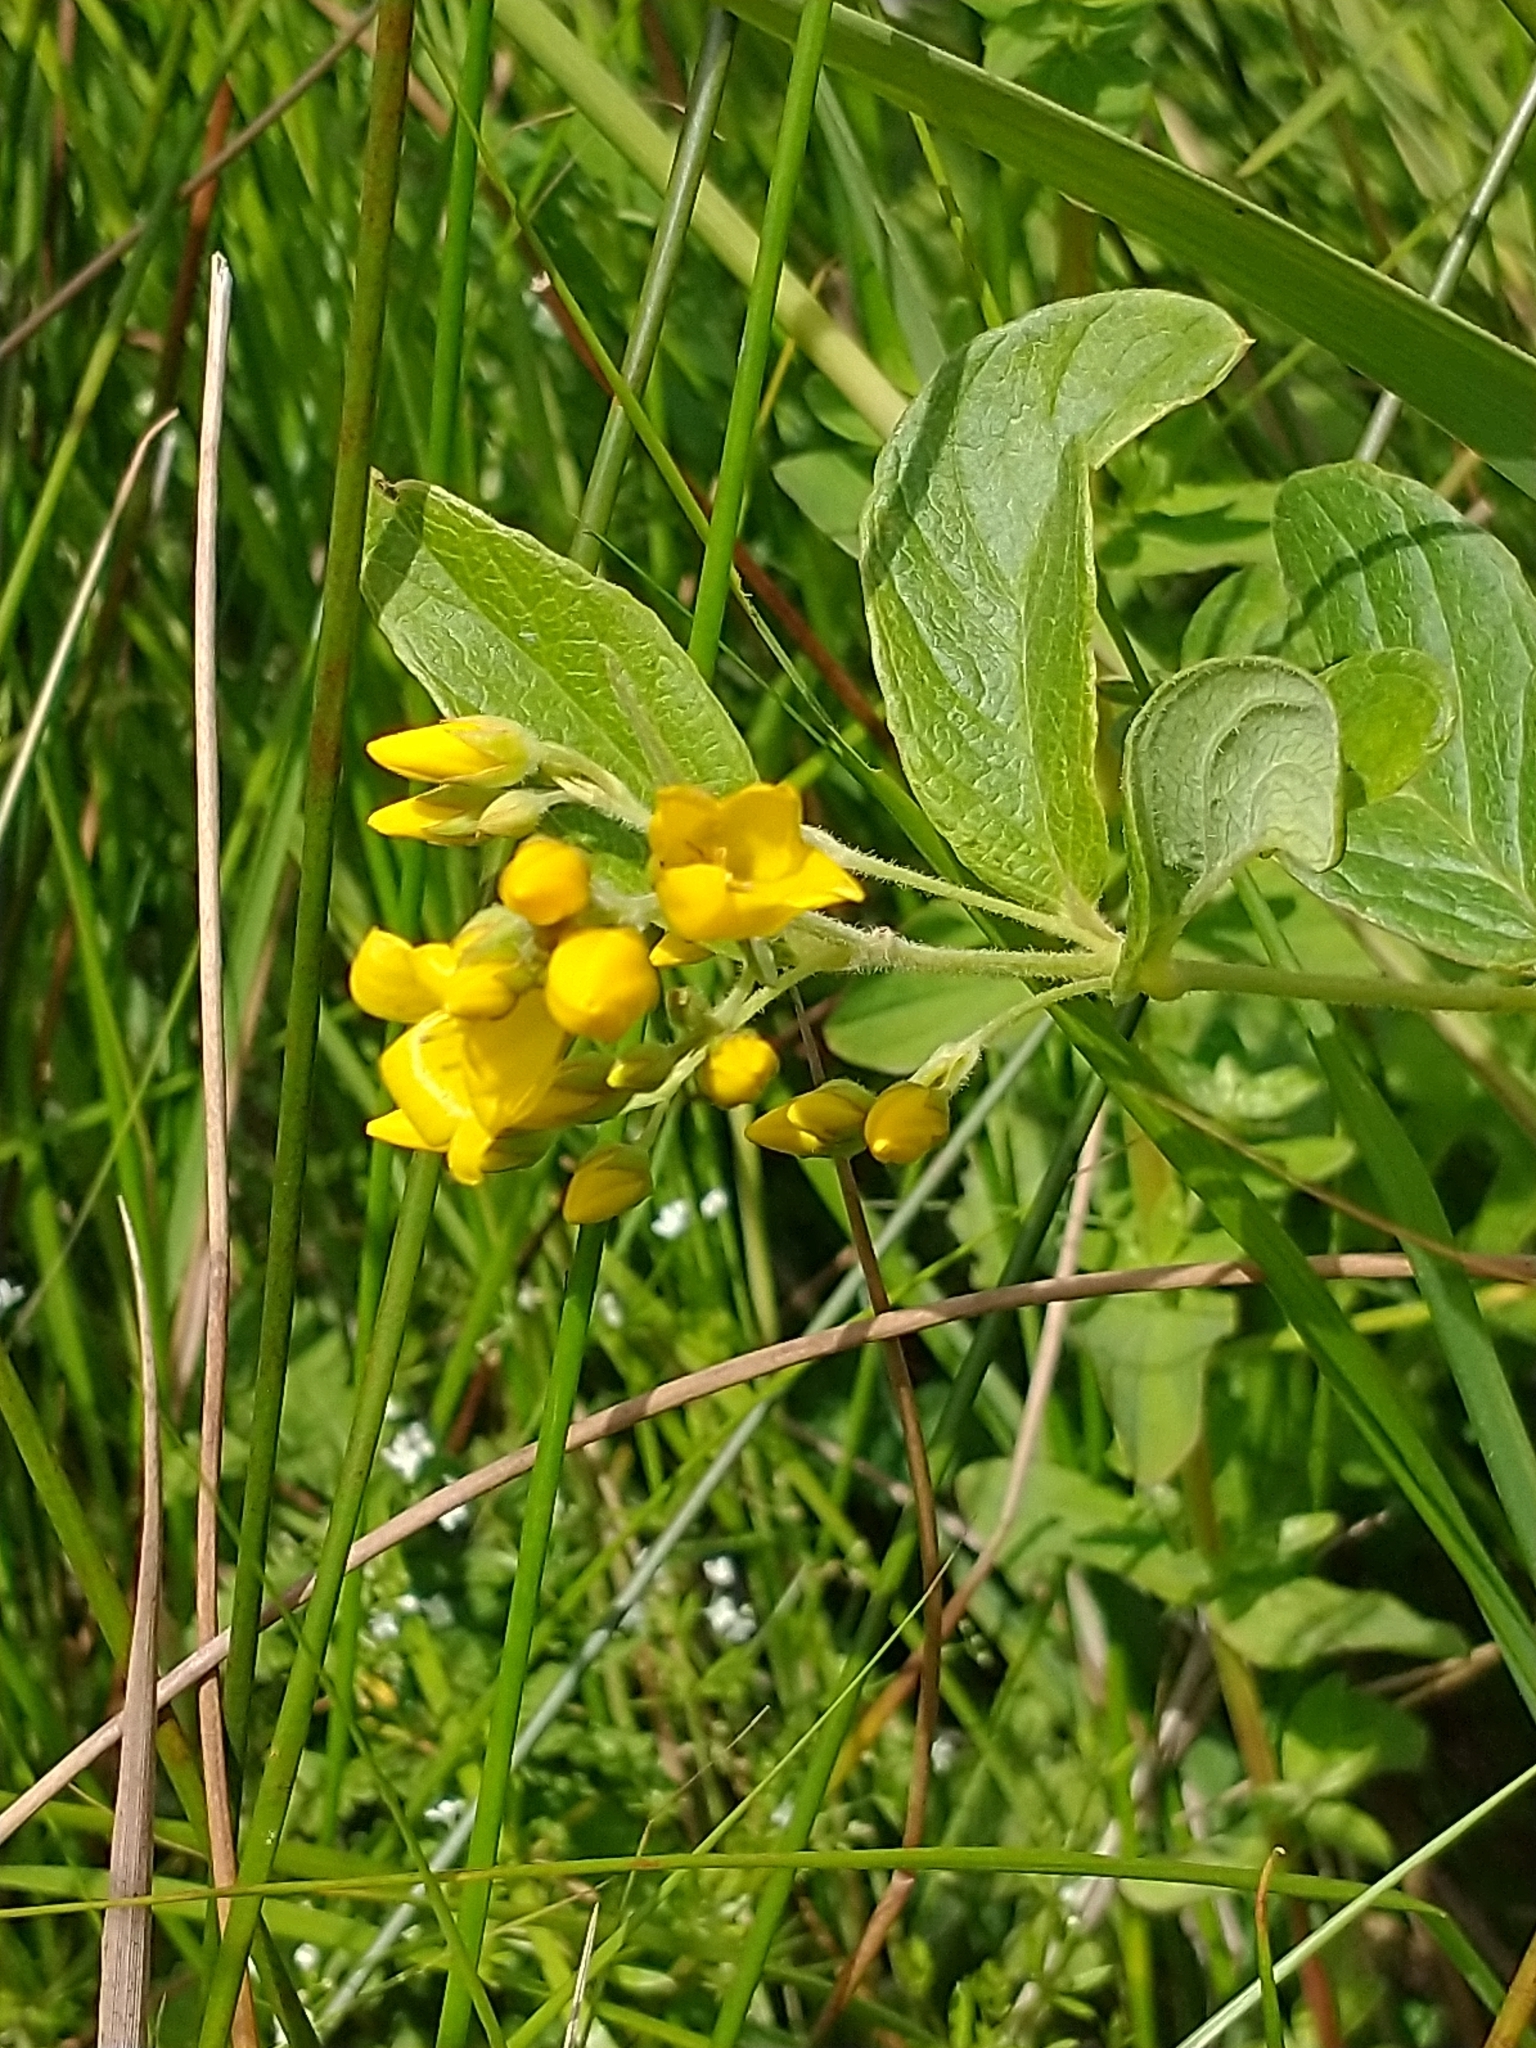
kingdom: Plantae
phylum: Tracheophyta
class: Magnoliopsida
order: Ericales
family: Primulaceae
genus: Lysimachia
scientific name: Lysimachia vulgaris
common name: Yellow loosestrife
